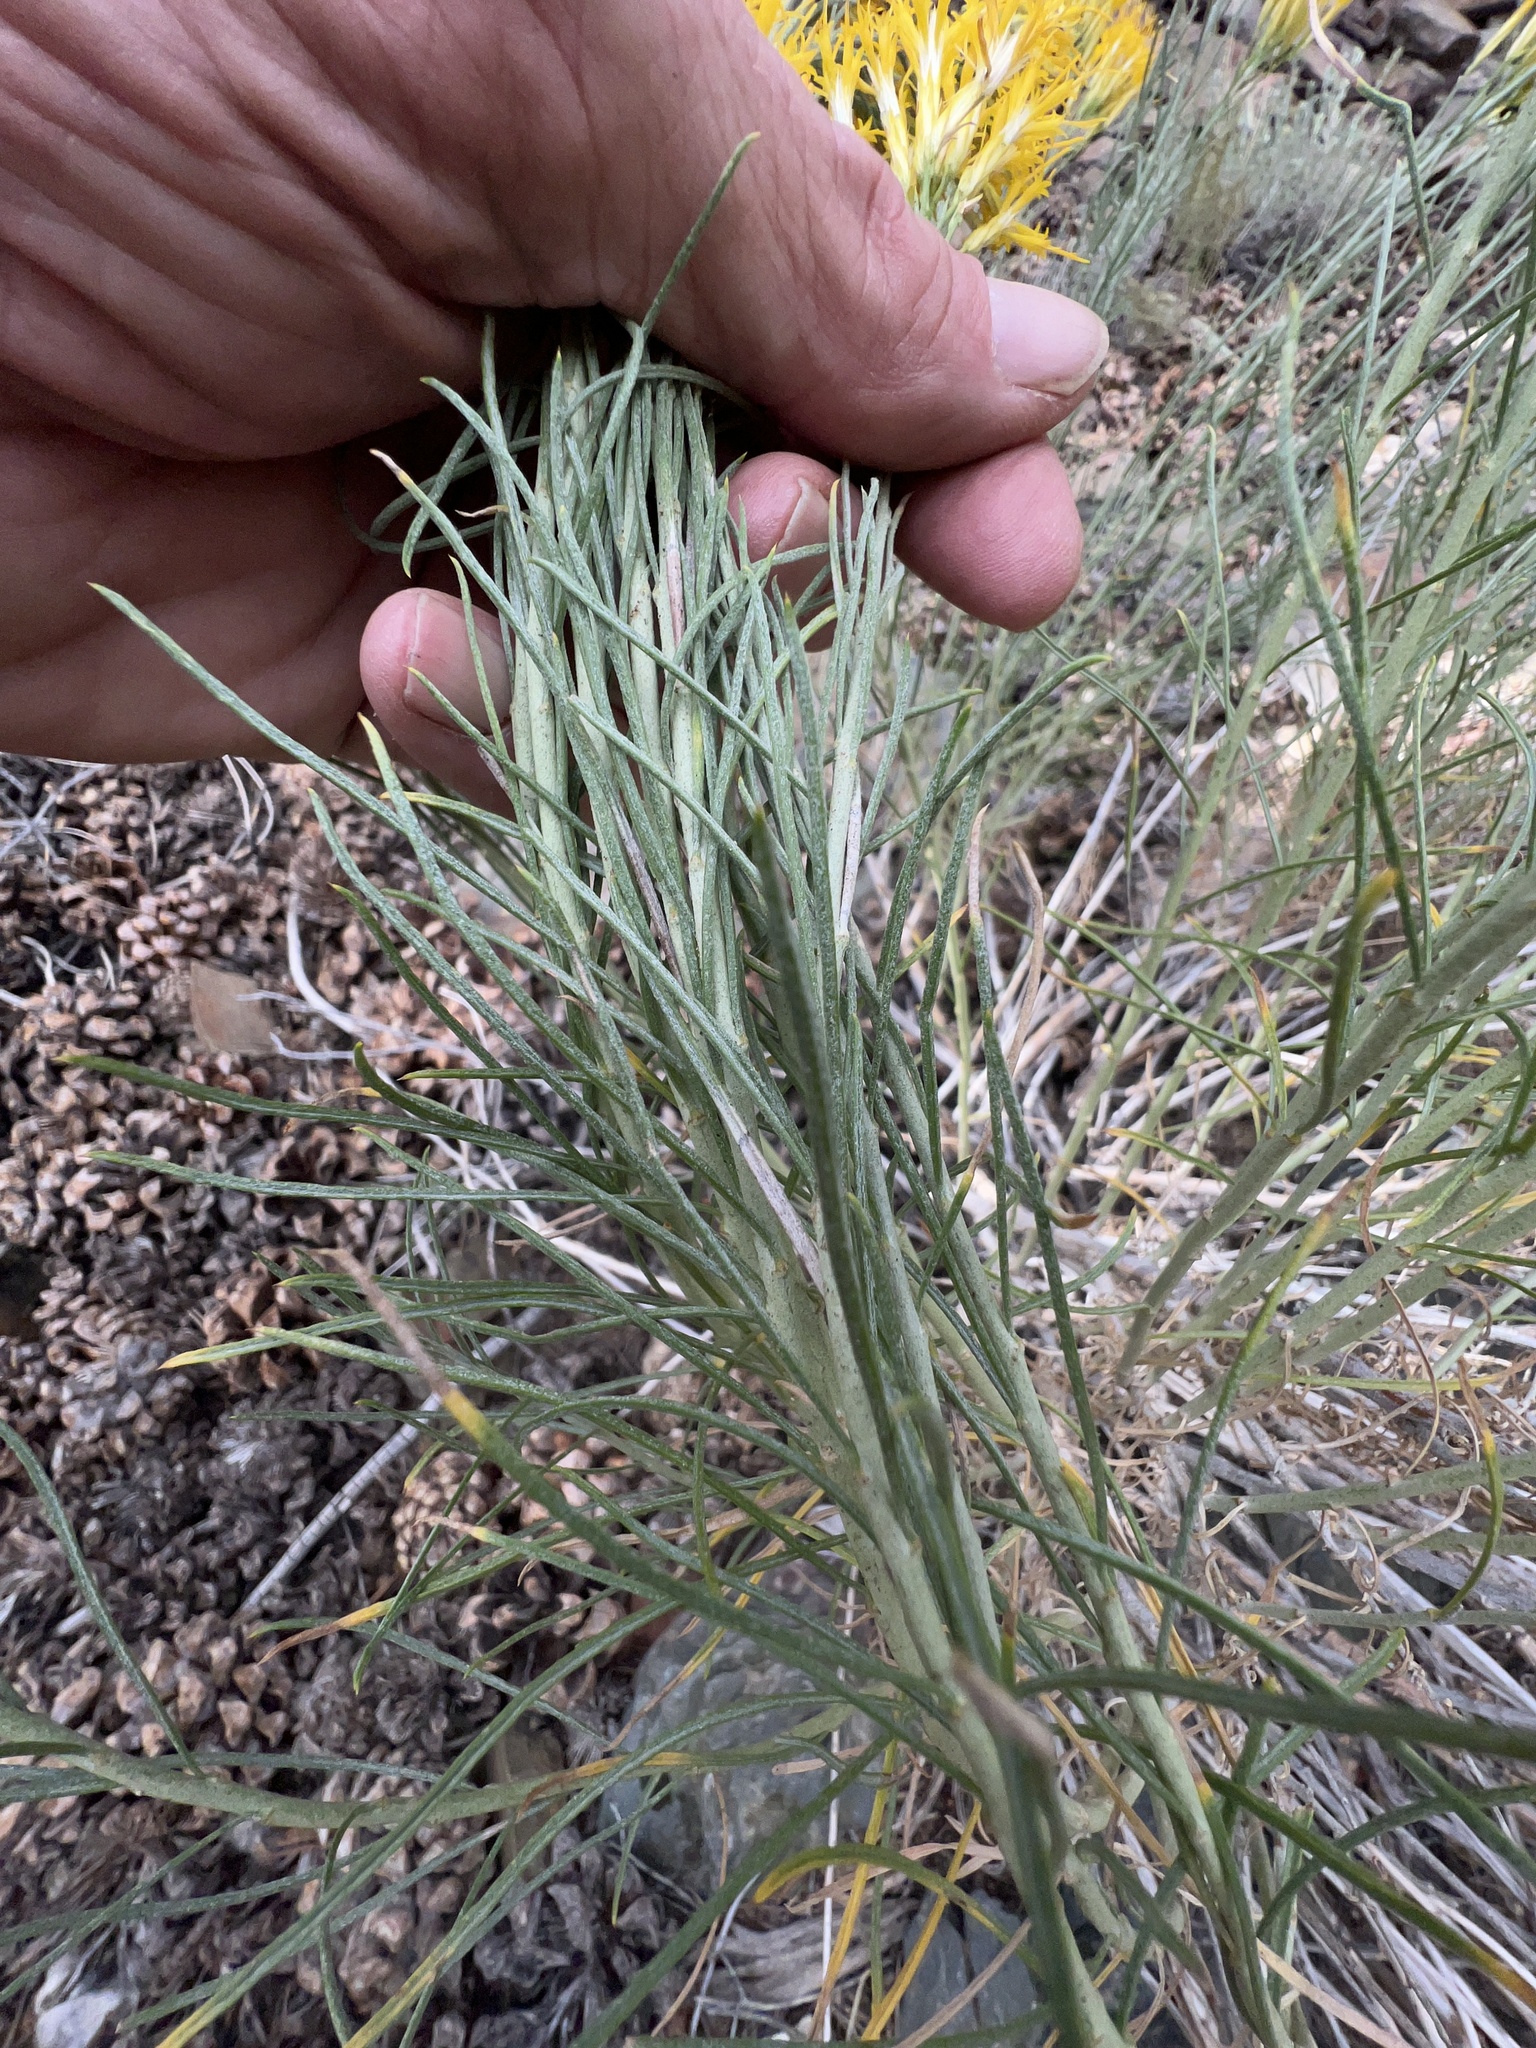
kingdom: Plantae
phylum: Tracheophyta
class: Magnoliopsida
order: Asterales
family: Asteraceae
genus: Ericameria
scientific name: Ericameria nauseosa
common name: Rubber rabbitbrush
